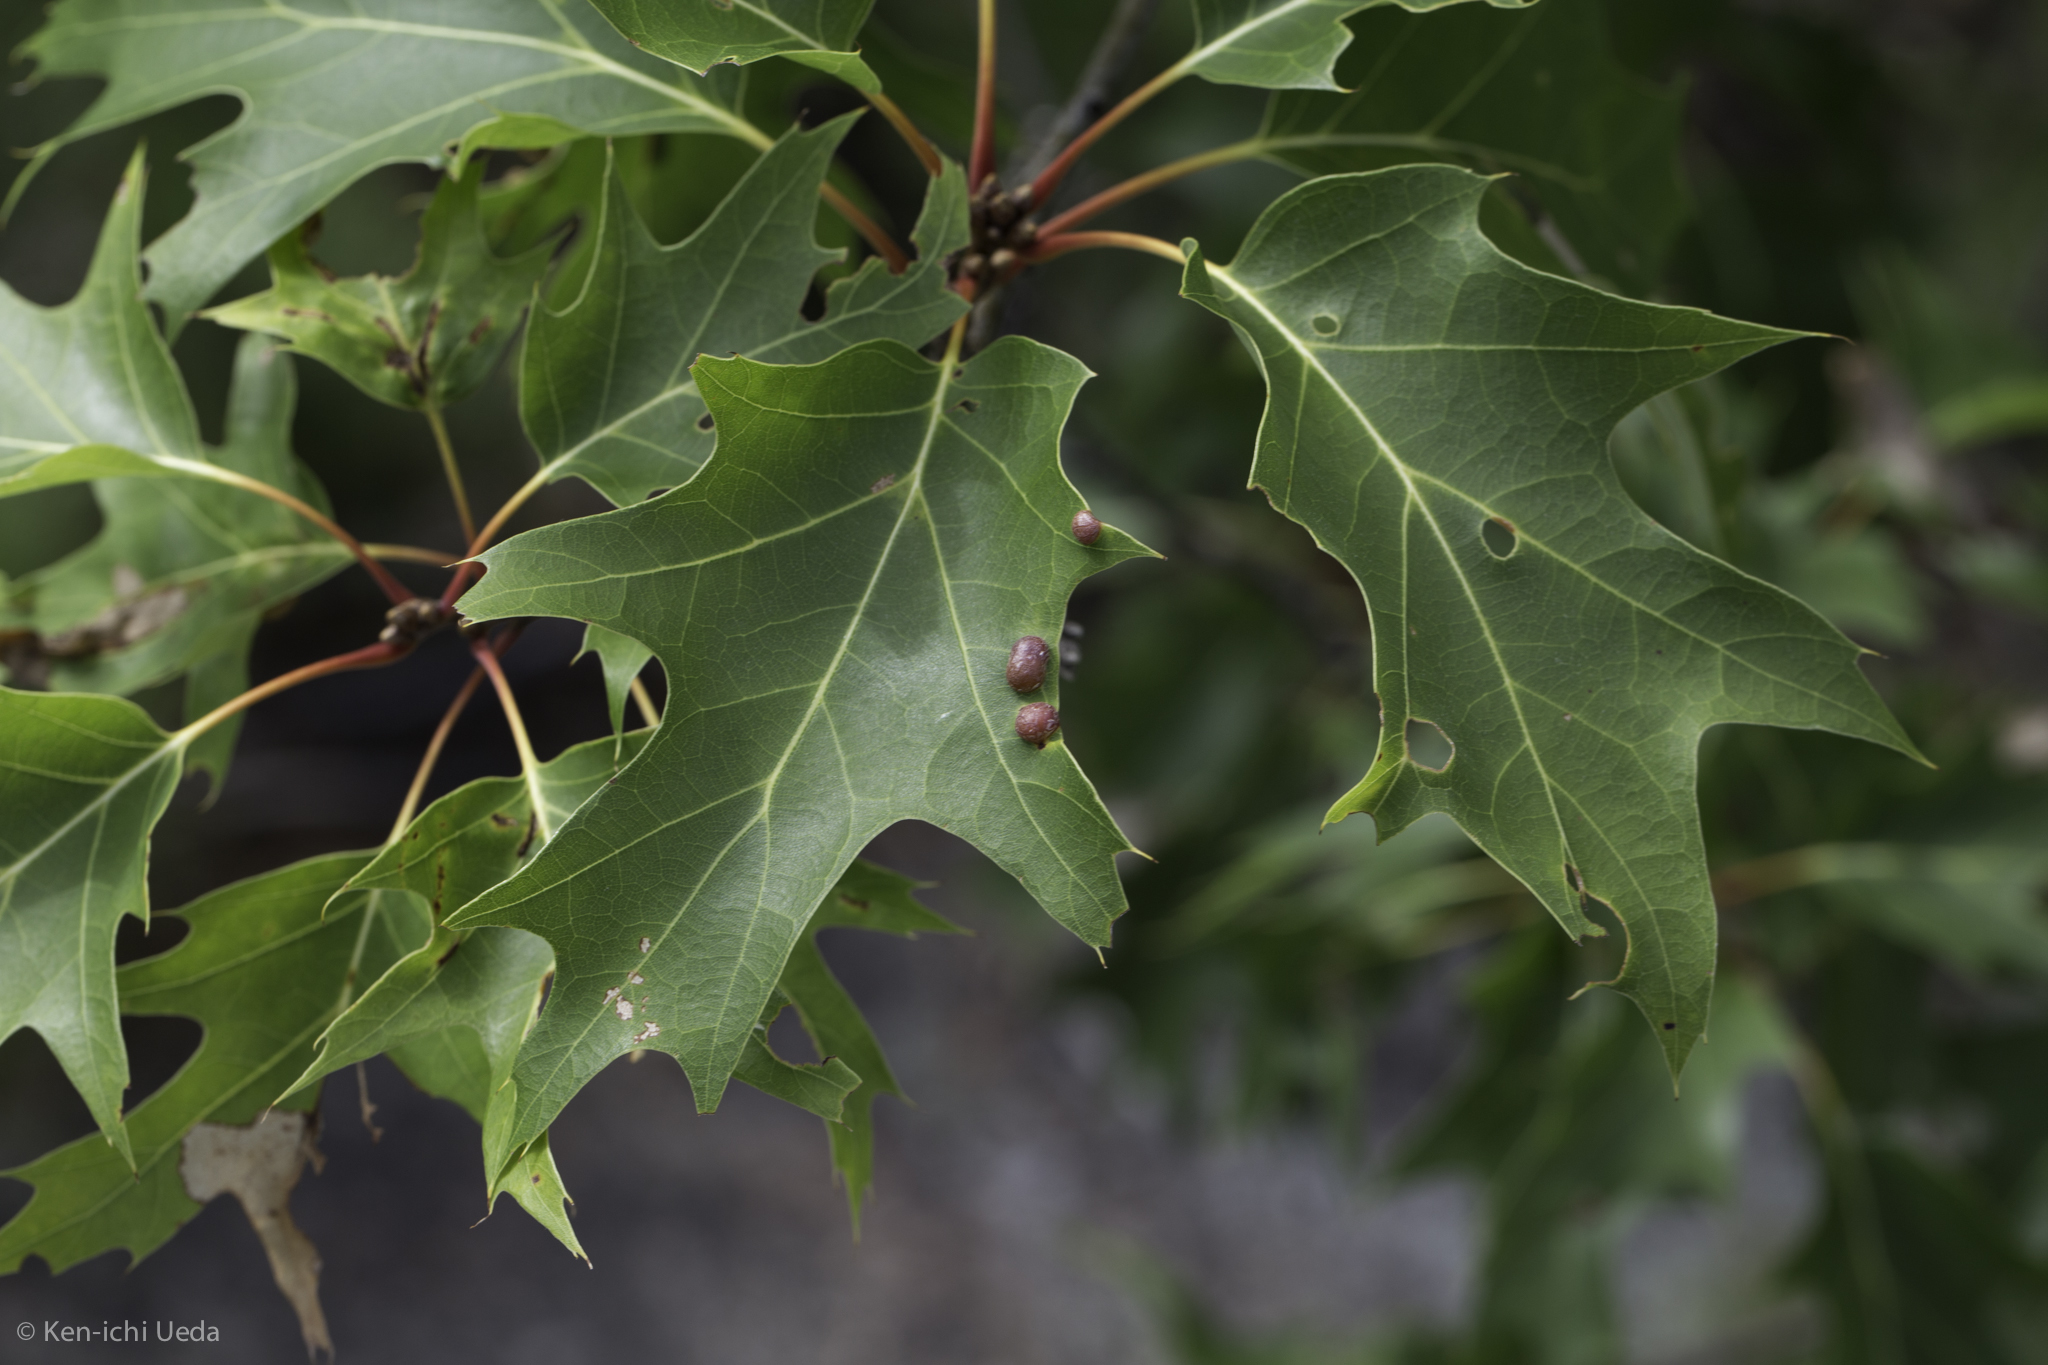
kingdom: Plantae
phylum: Tracheophyta
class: Magnoliopsida
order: Fagales
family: Fagaceae
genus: Quercus
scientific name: Quercus rubra
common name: Red oak
